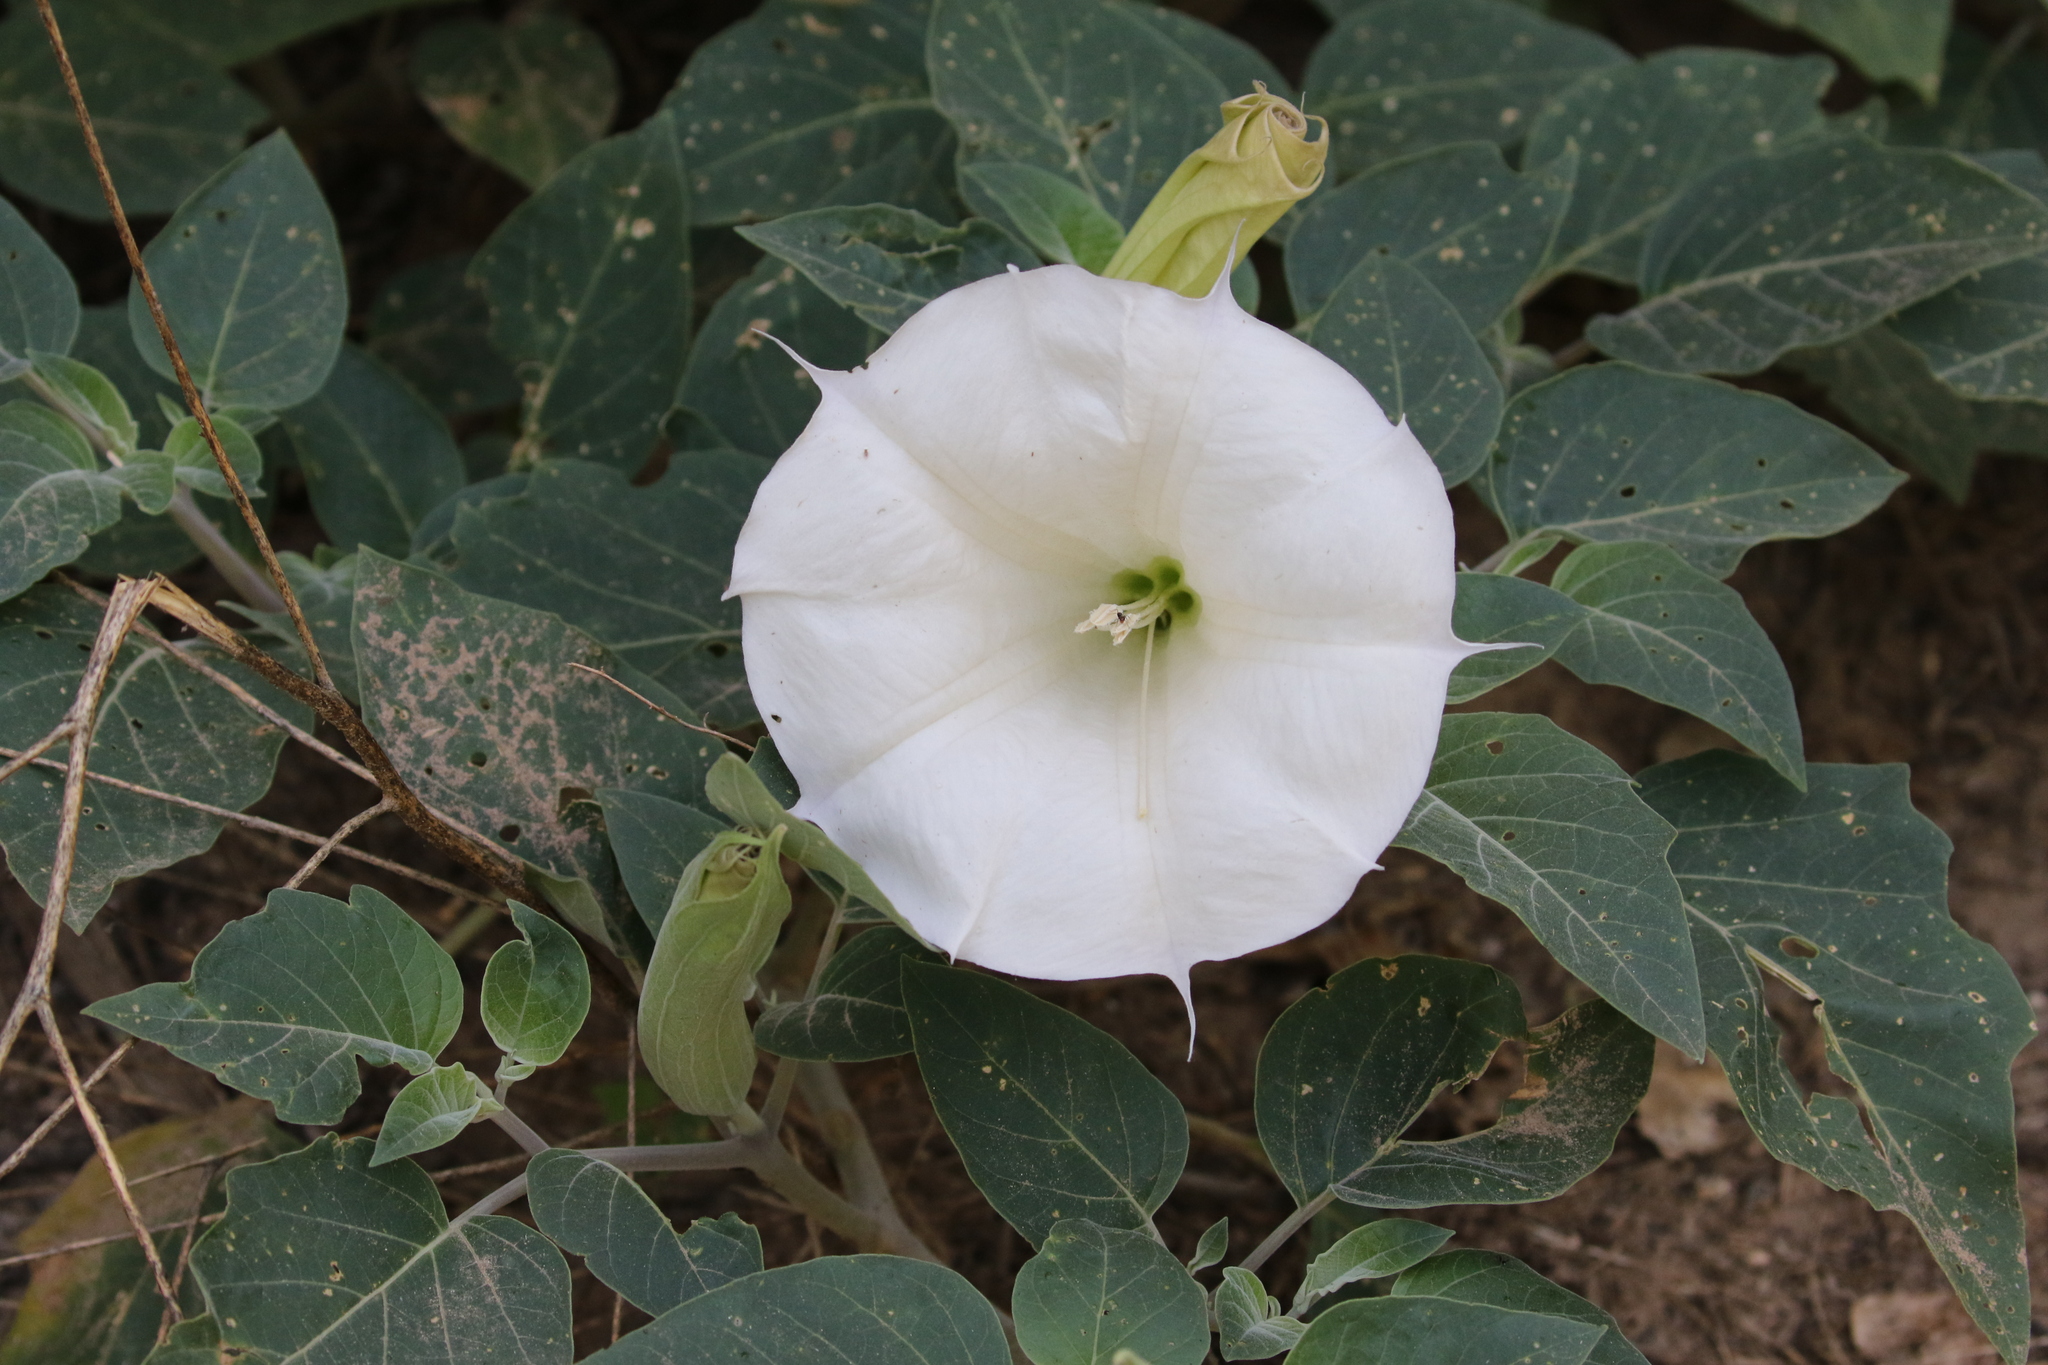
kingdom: Plantae
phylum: Tracheophyta
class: Magnoliopsida
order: Solanales
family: Solanaceae
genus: Datura
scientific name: Datura wrightii
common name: Sacred thorn-apple
